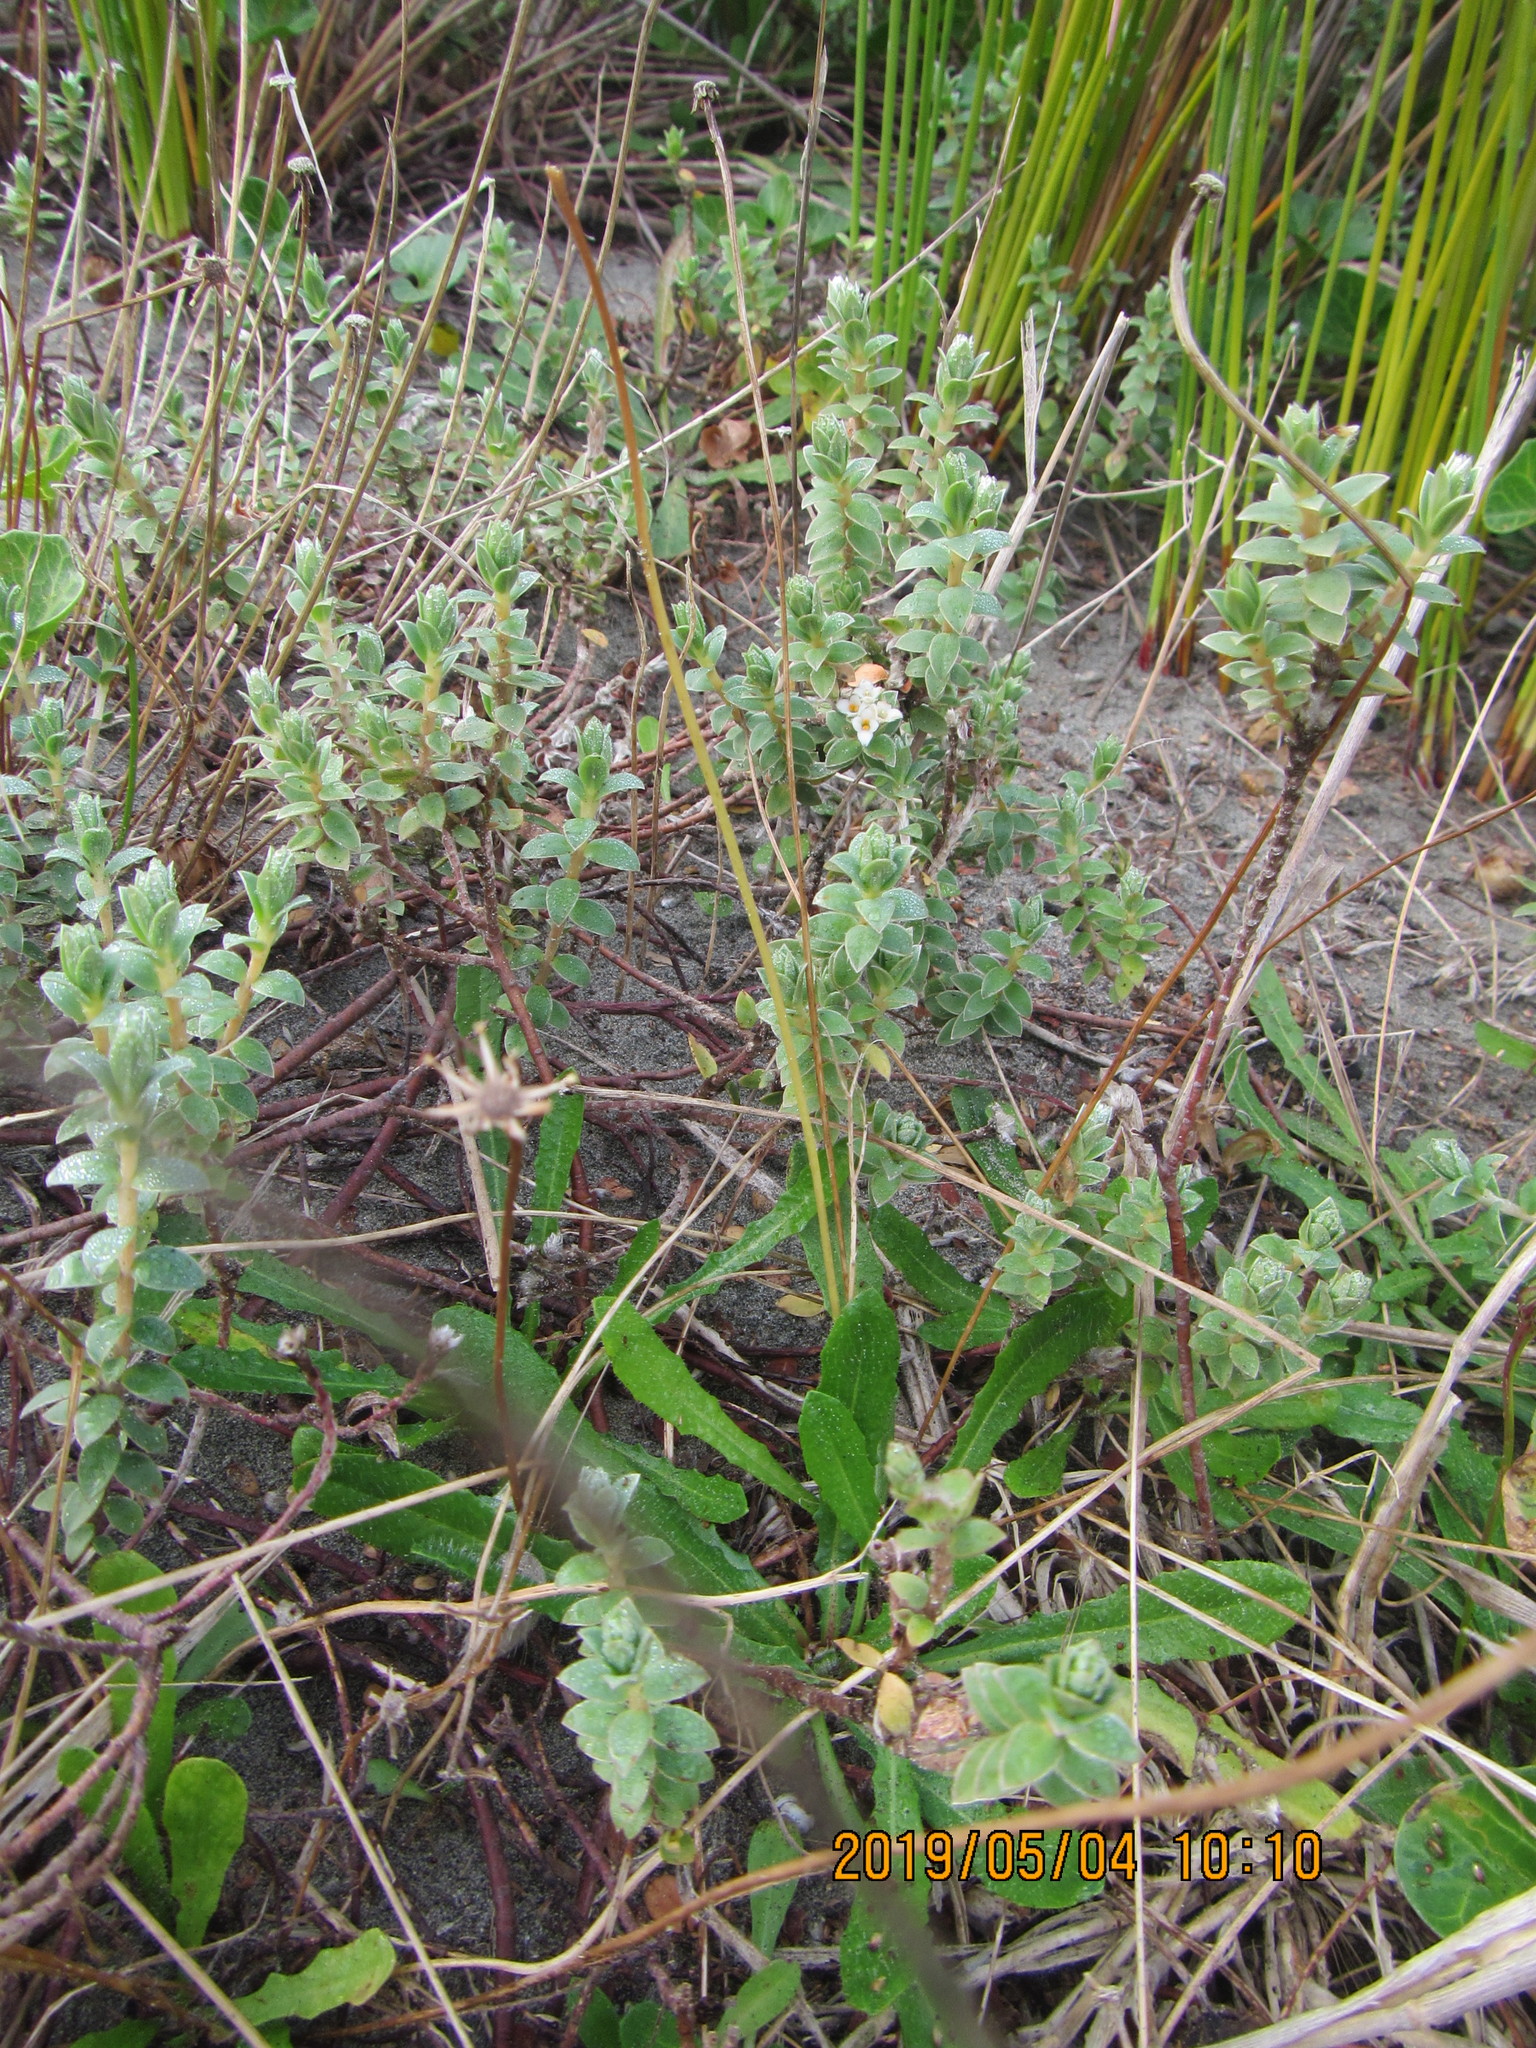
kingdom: Plantae
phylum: Tracheophyta
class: Magnoliopsida
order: Malvales
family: Thymelaeaceae
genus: Pimelea
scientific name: Pimelea villosa
